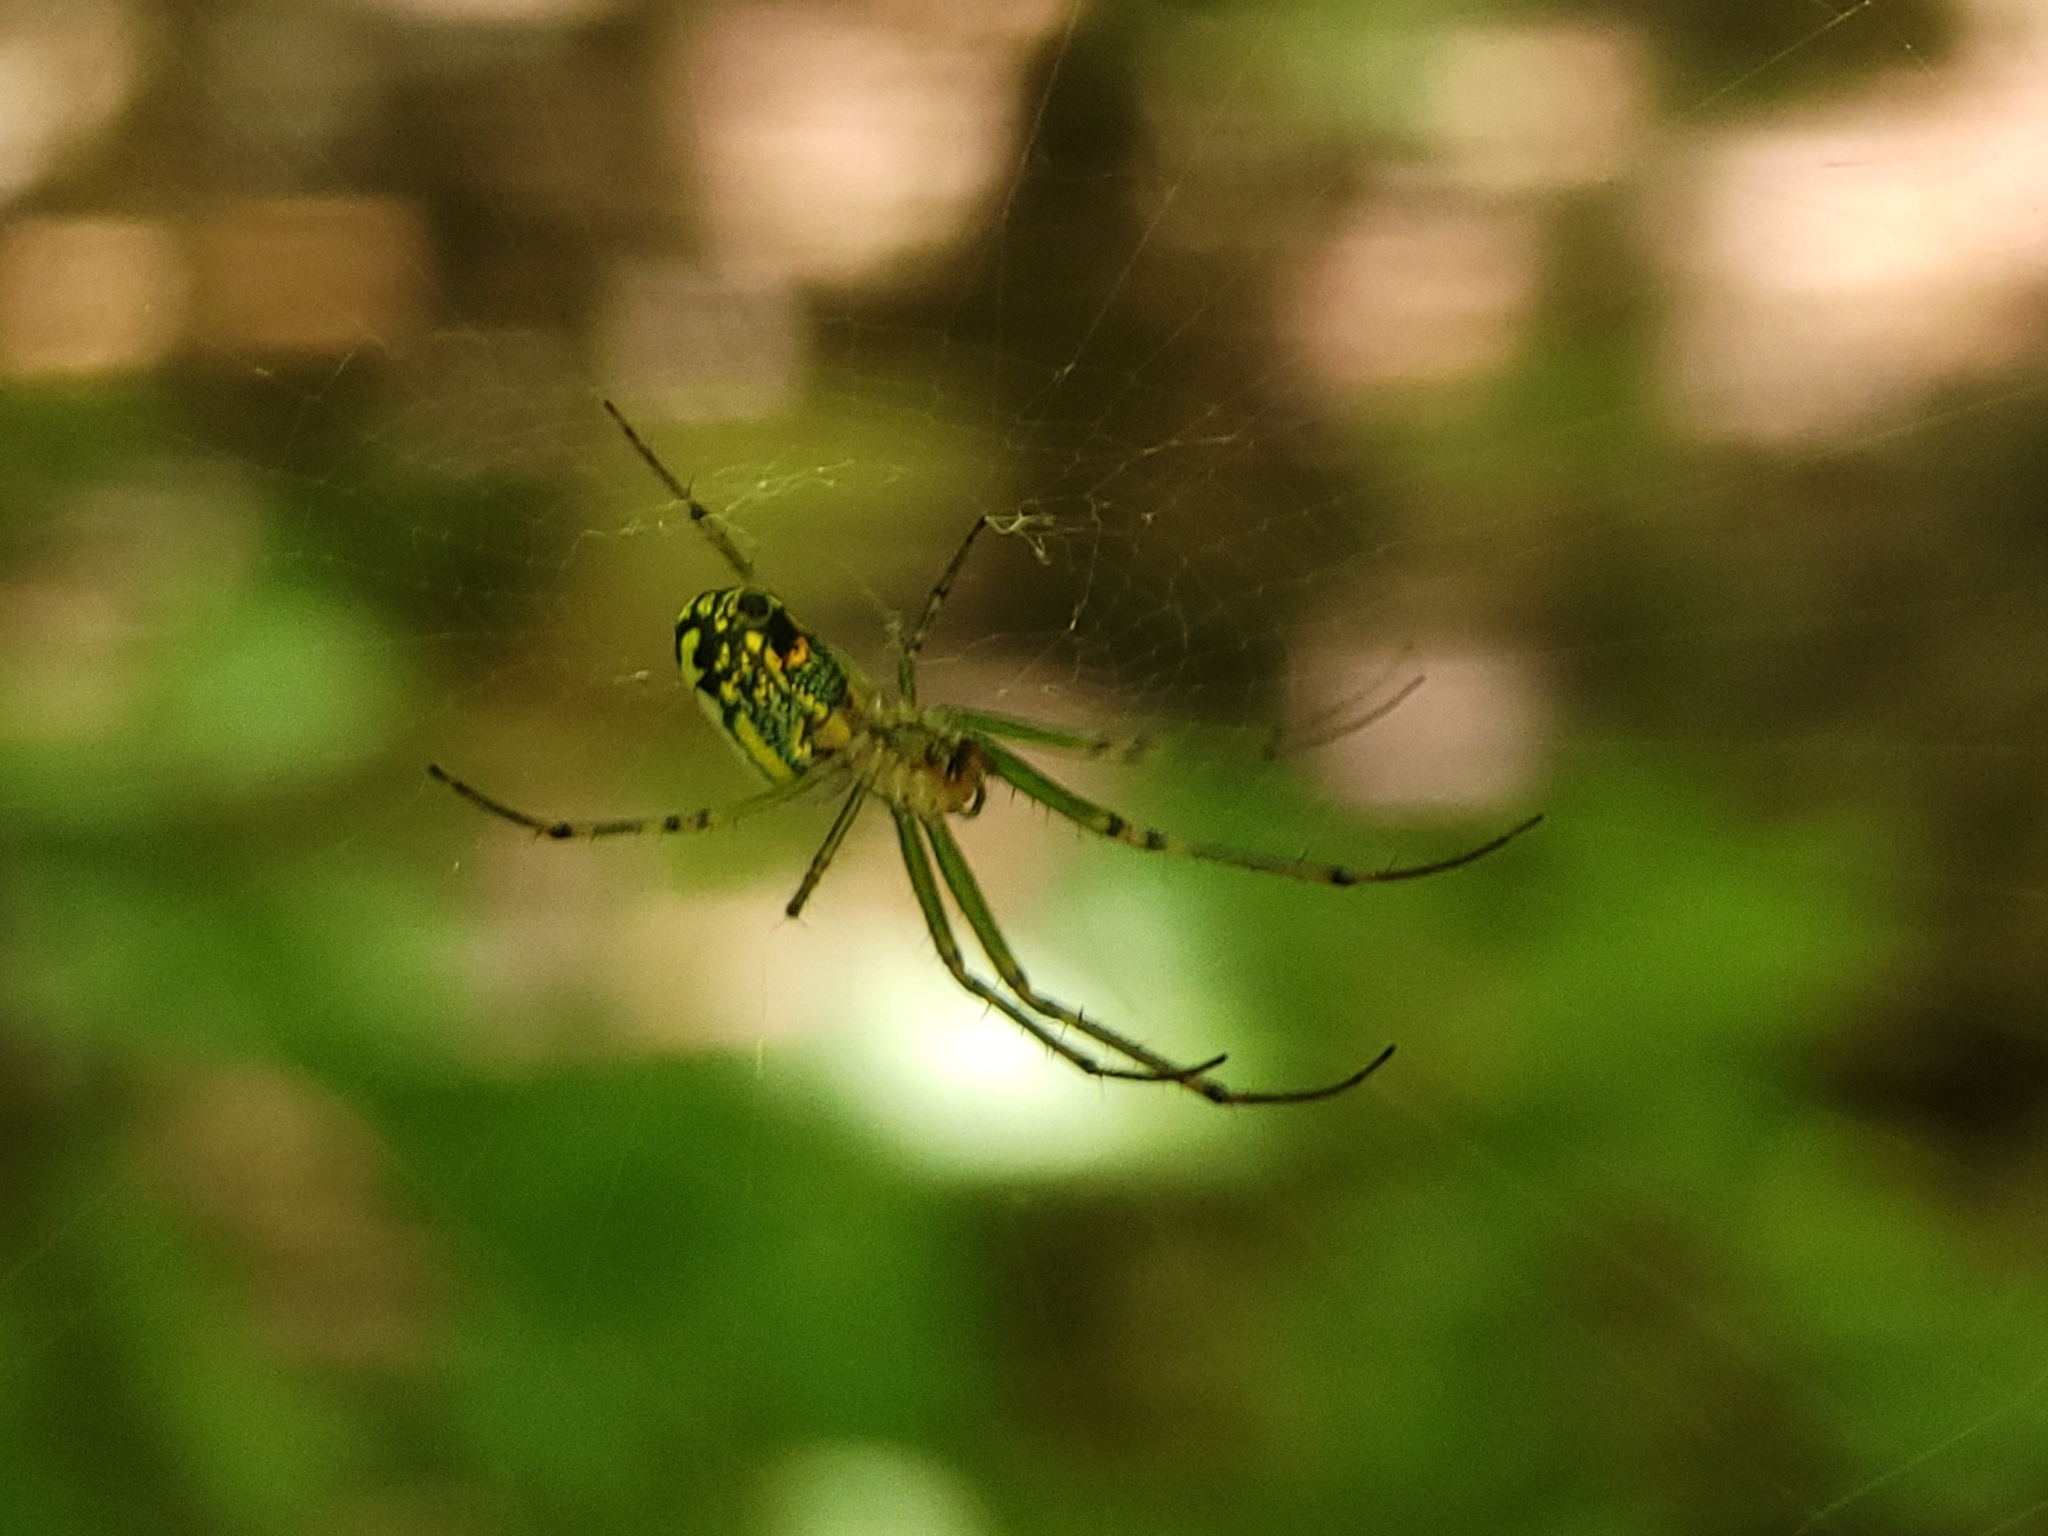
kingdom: Animalia
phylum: Arthropoda
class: Arachnida
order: Araneae
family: Tetragnathidae
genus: Leucauge
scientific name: Leucauge venusta
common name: Longjawed orb weavers
